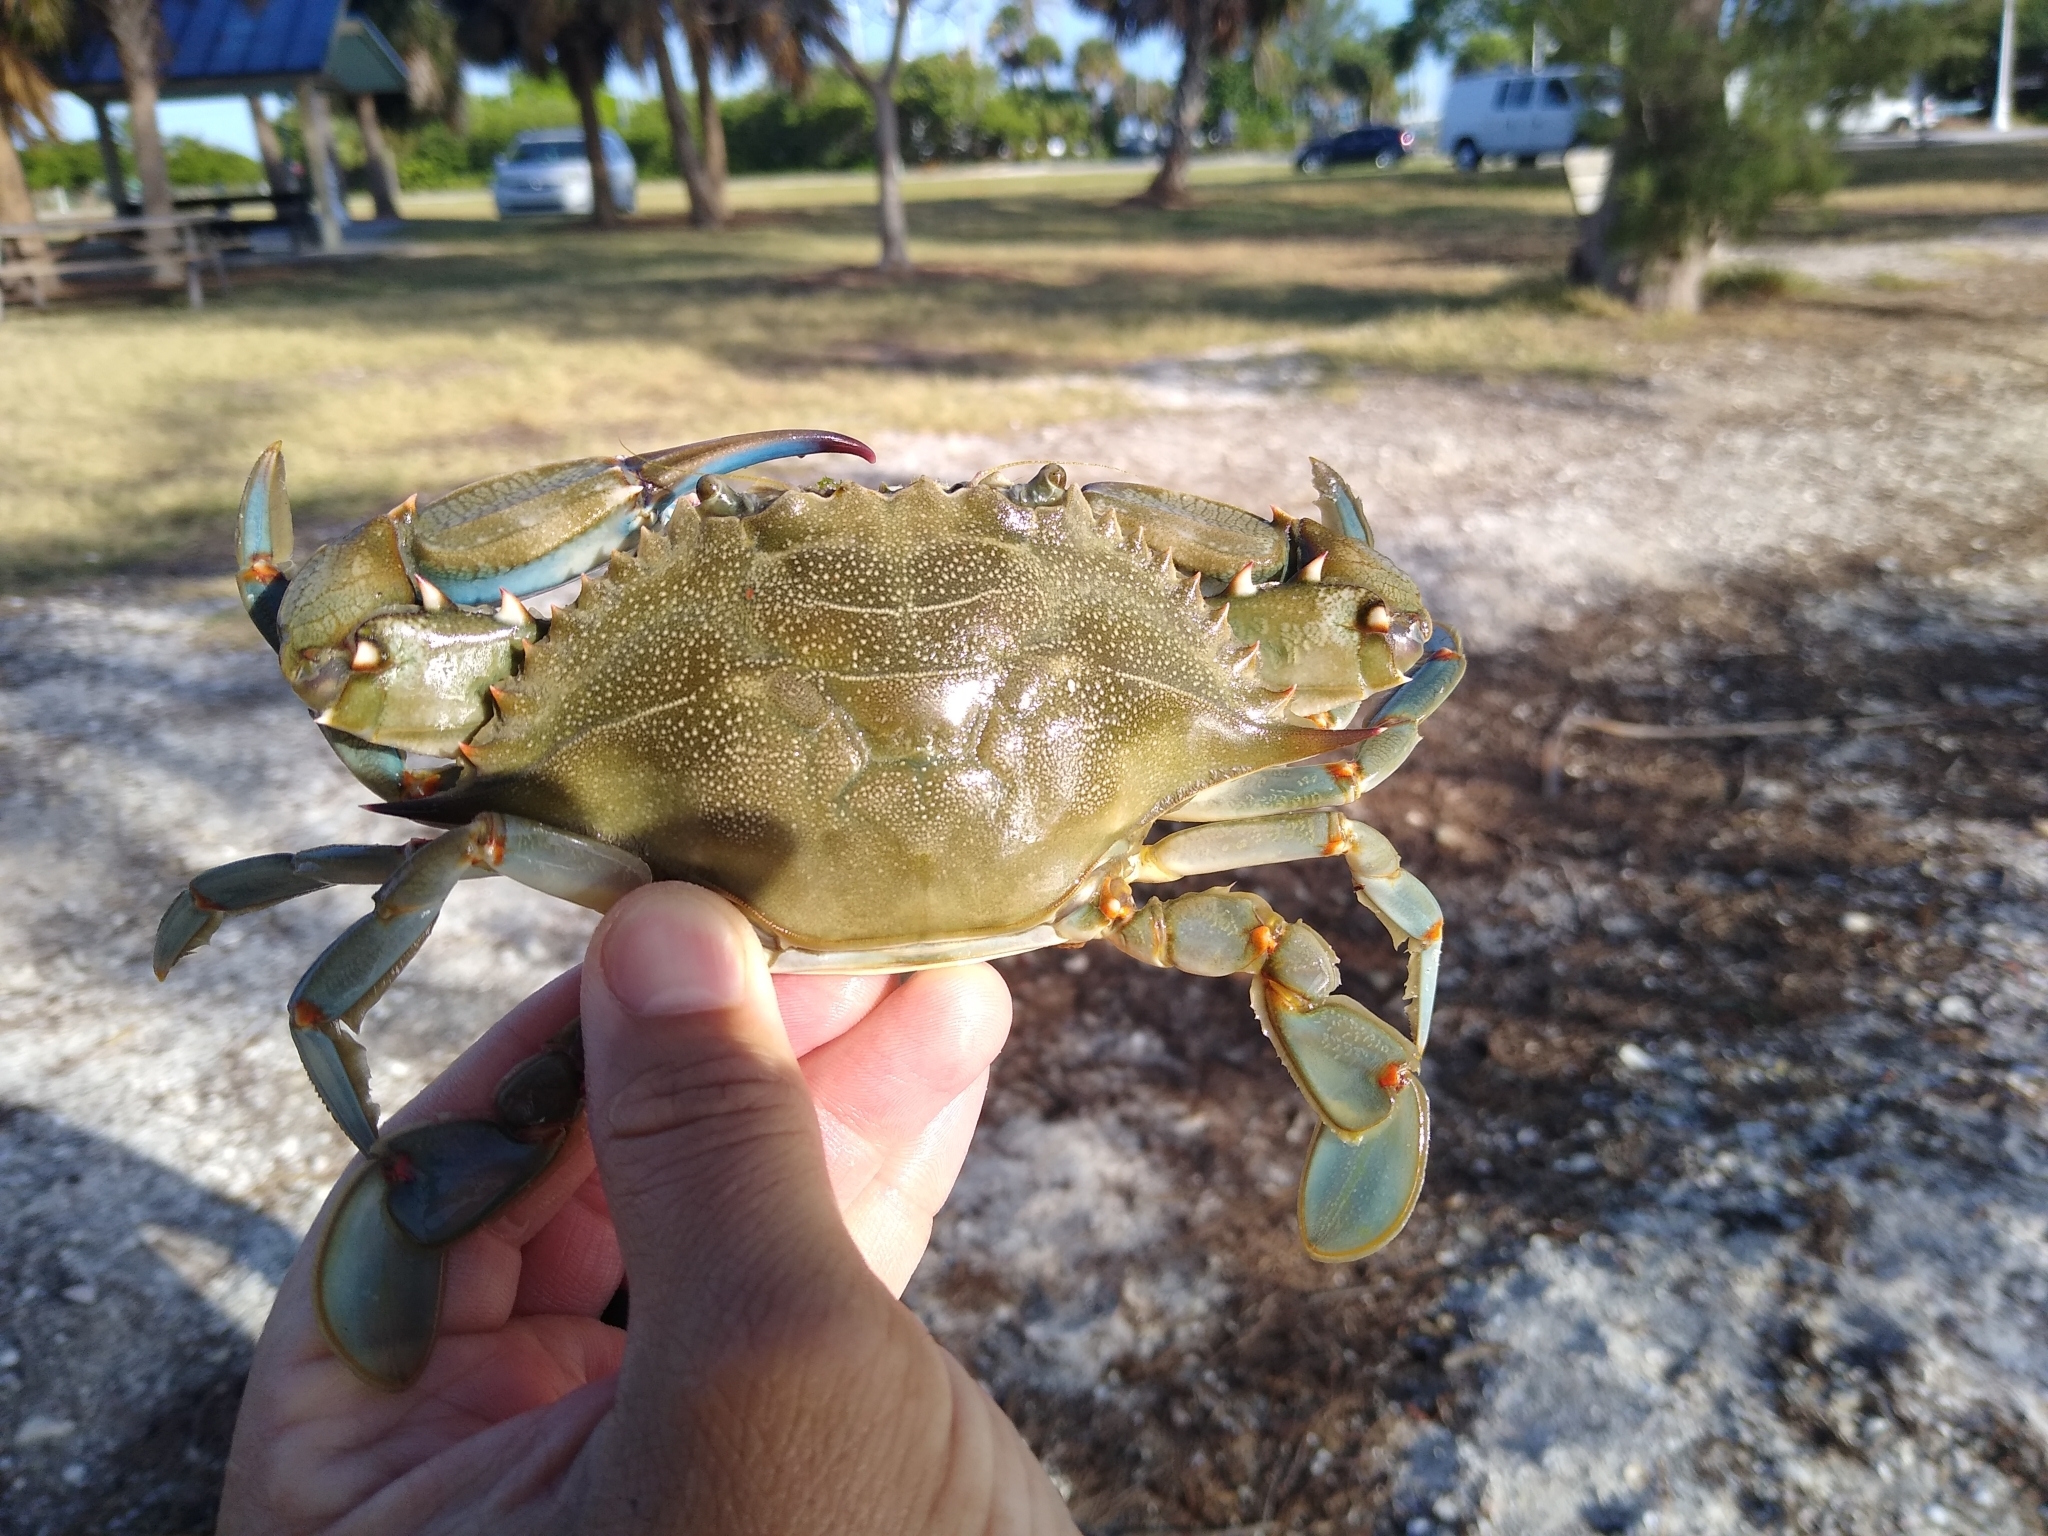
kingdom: Animalia
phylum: Arthropoda
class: Malacostraca
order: Decapoda
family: Portunidae
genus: Callinectes
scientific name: Callinectes sapidus
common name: Blue crab
